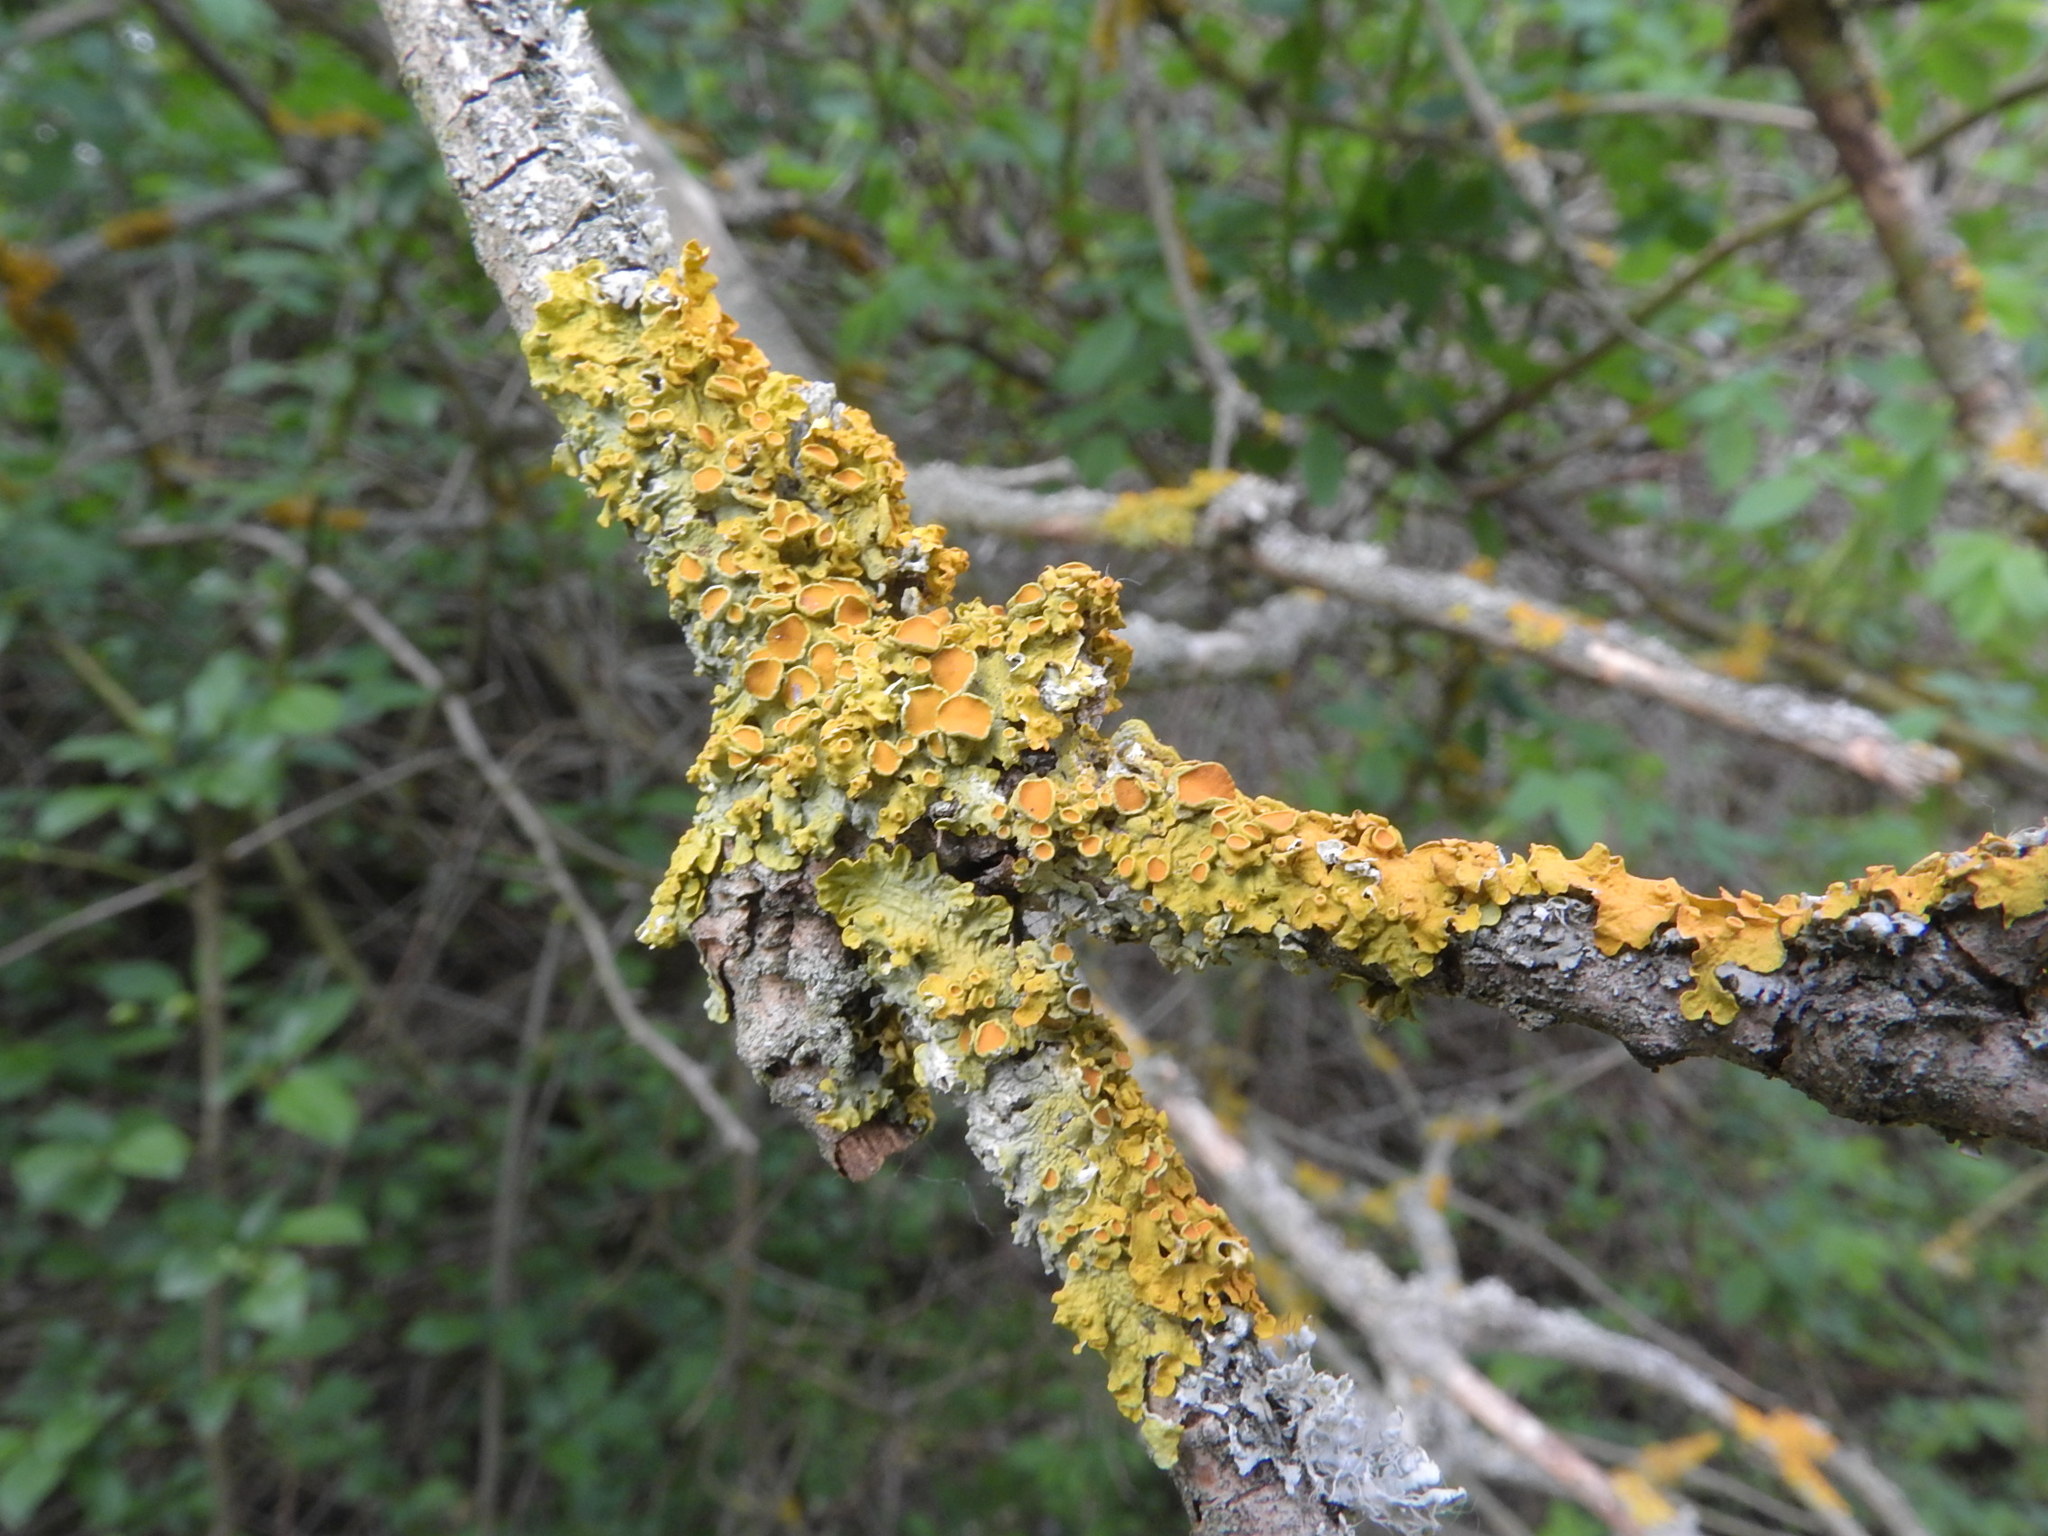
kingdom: Fungi
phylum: Ascomycota
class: Lecanoromycetes
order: Teloschistales
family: Teloschistaceae
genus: Xanthoria
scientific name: Xanthoria parietina
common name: Common orange lichen
